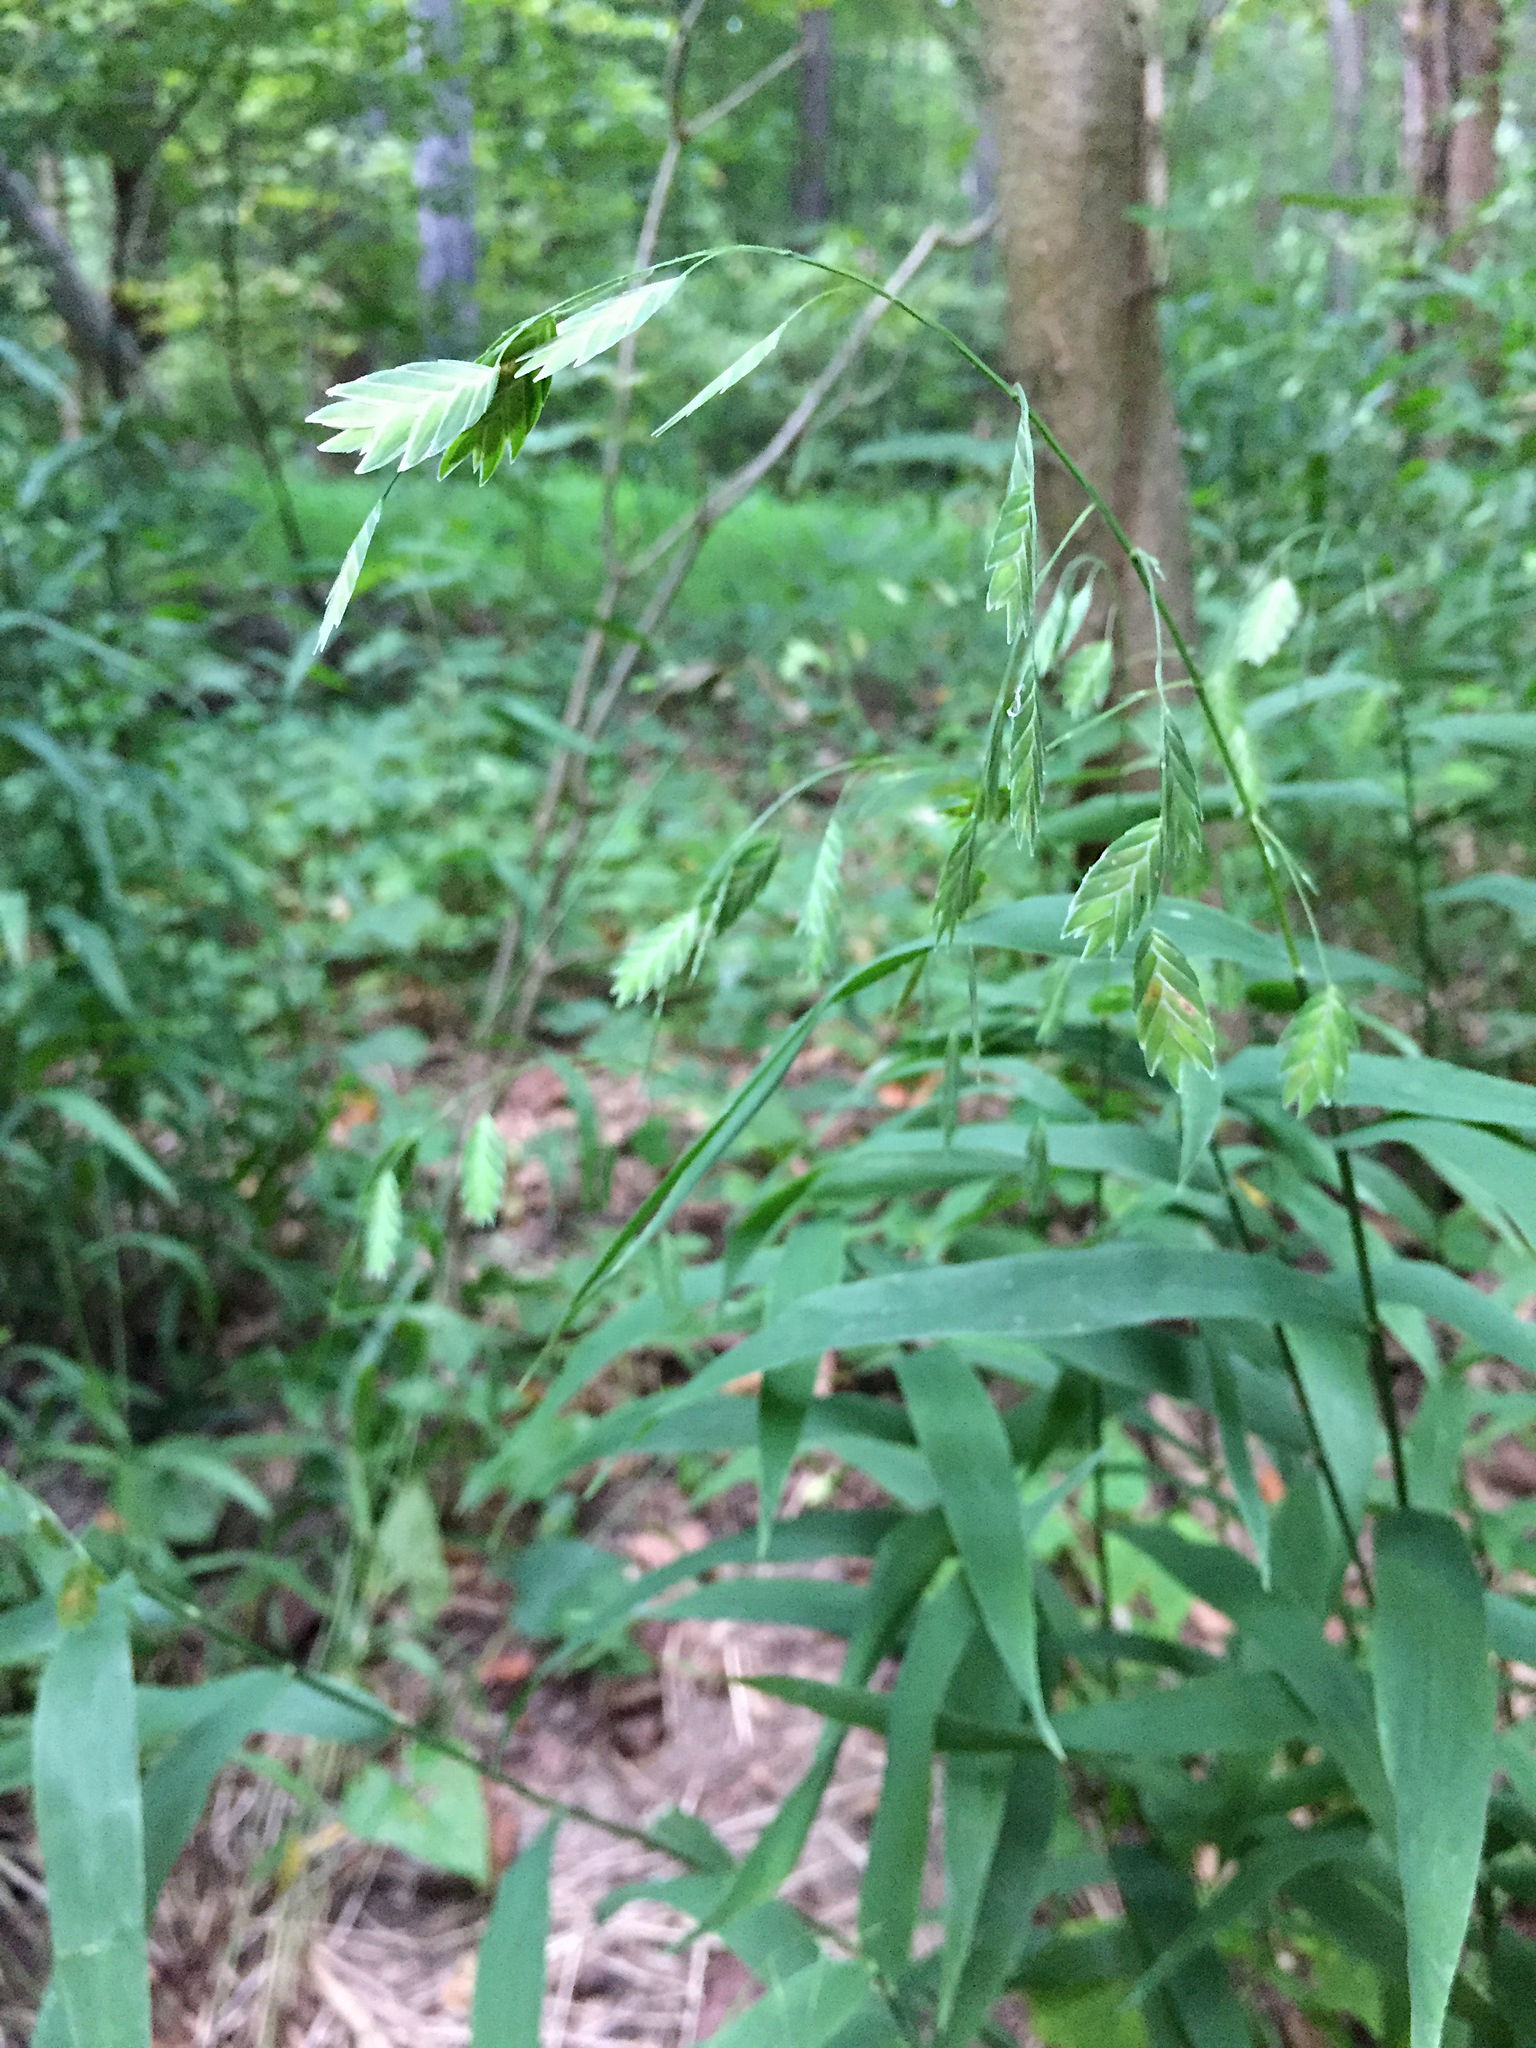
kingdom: Plantae
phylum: Tracheophyta
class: Liliopsida
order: Poales
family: Poaceae
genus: Chasmanthium
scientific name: Chasmanthium latifolium
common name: Broad-leaved chasmanthium
